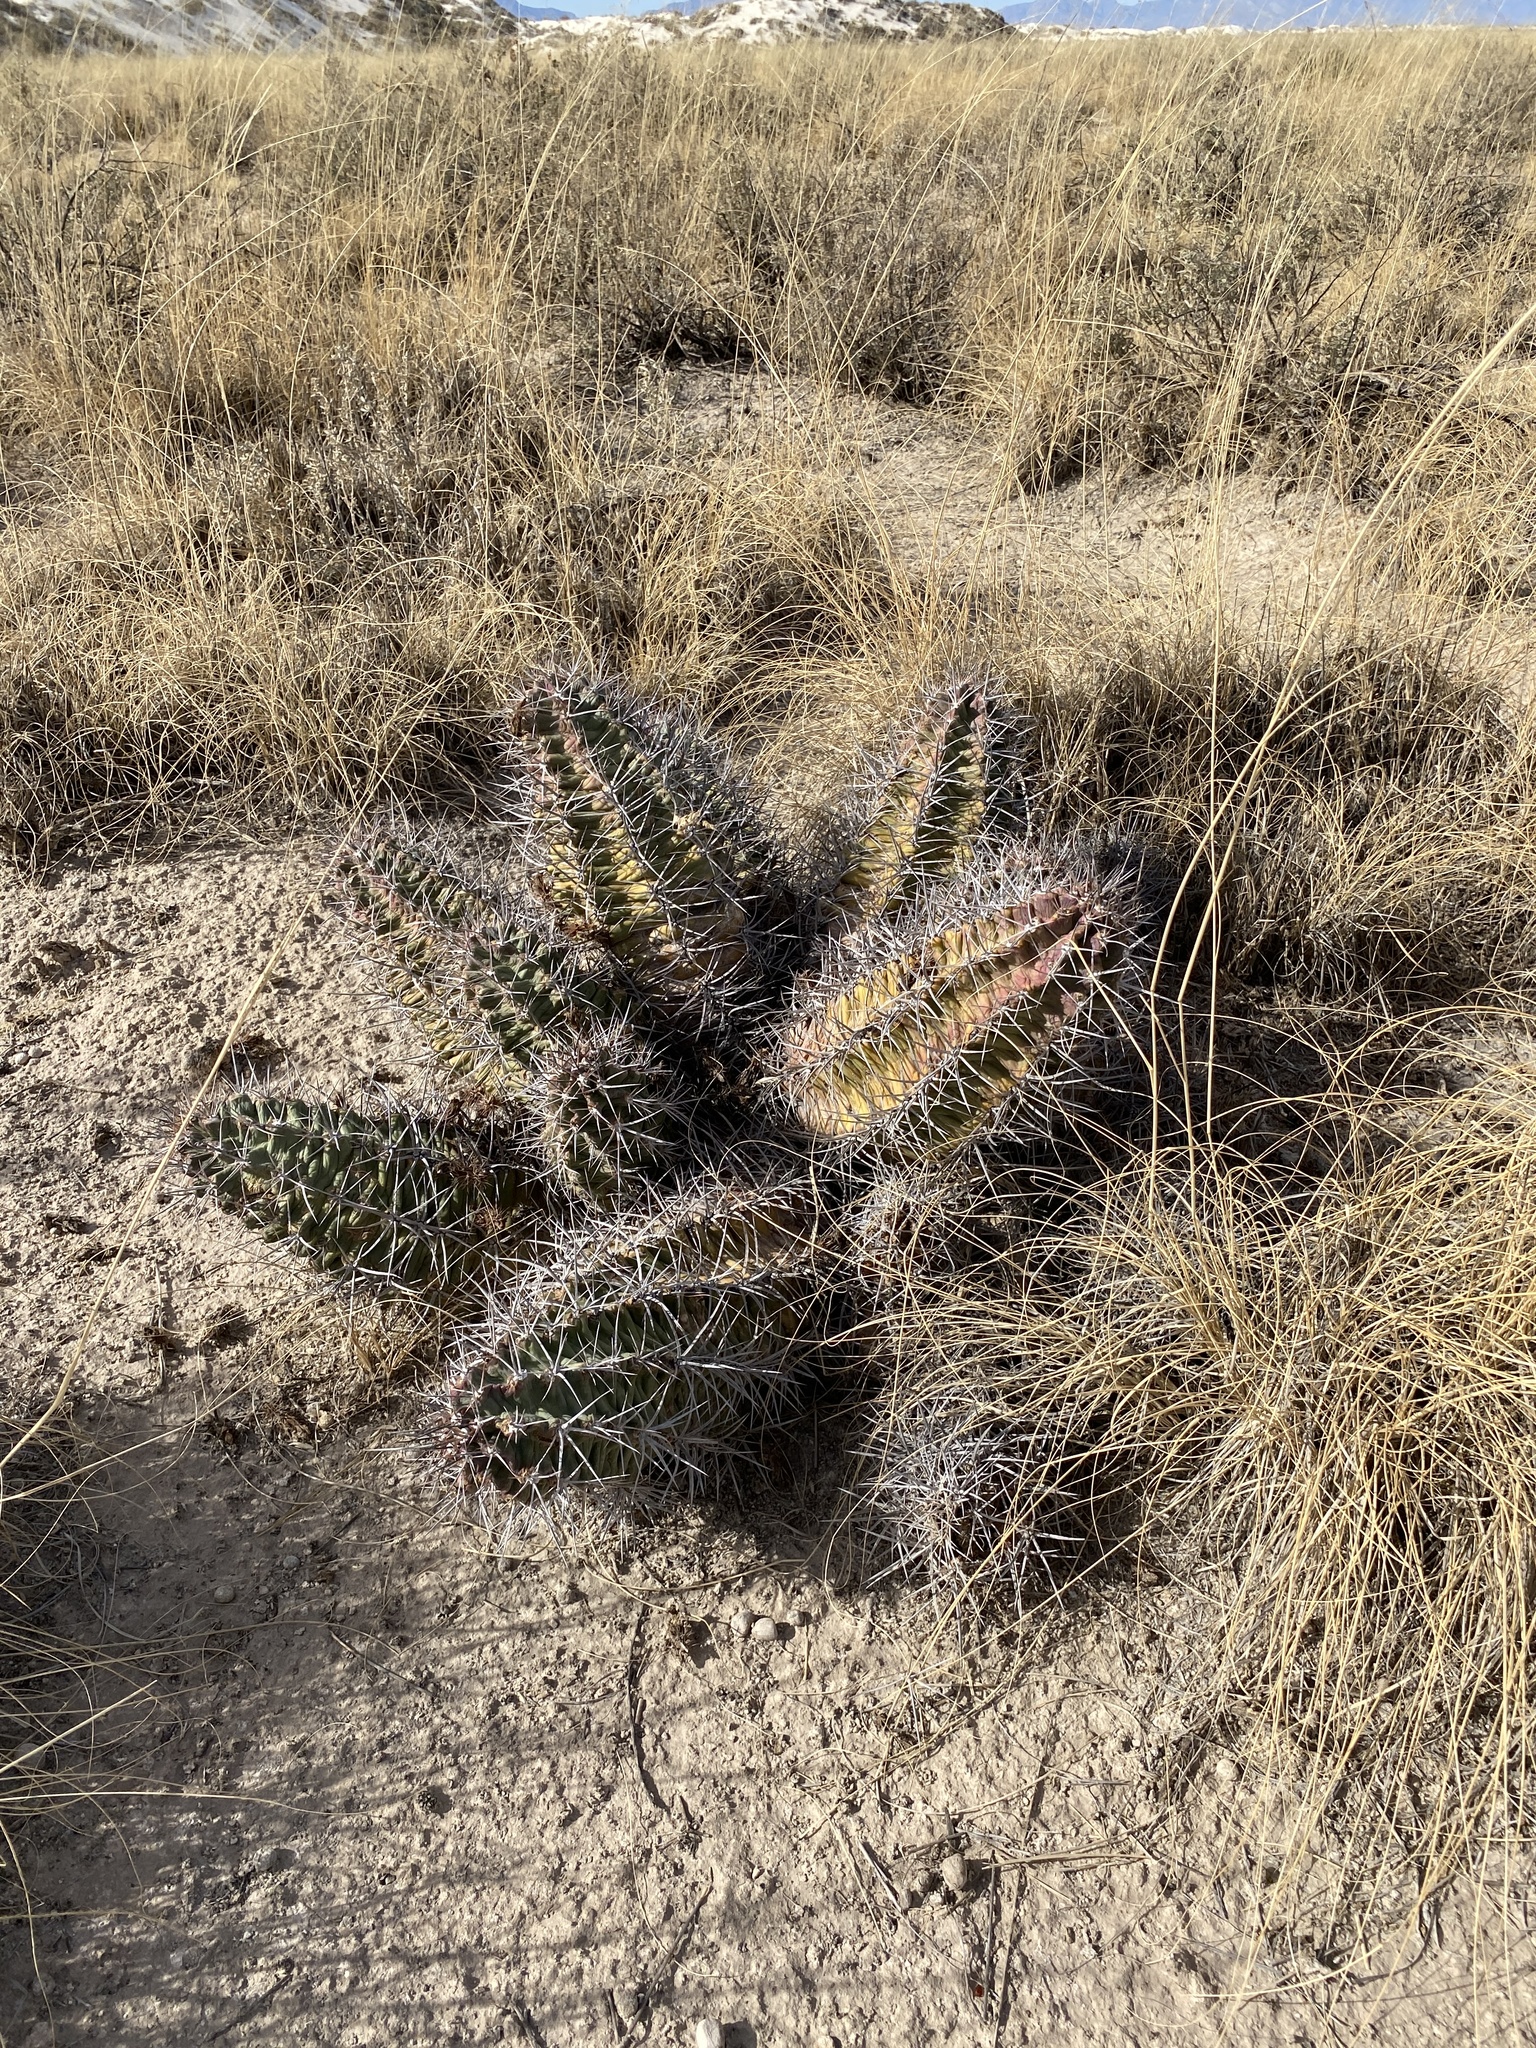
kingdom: Plantae
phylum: Tracheophyta
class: Magnoliopsida
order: Caryophyllales
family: Cactaceae
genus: Echinocereus
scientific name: Echinocereus triglochidiatus
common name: Claretcup hedgehog
